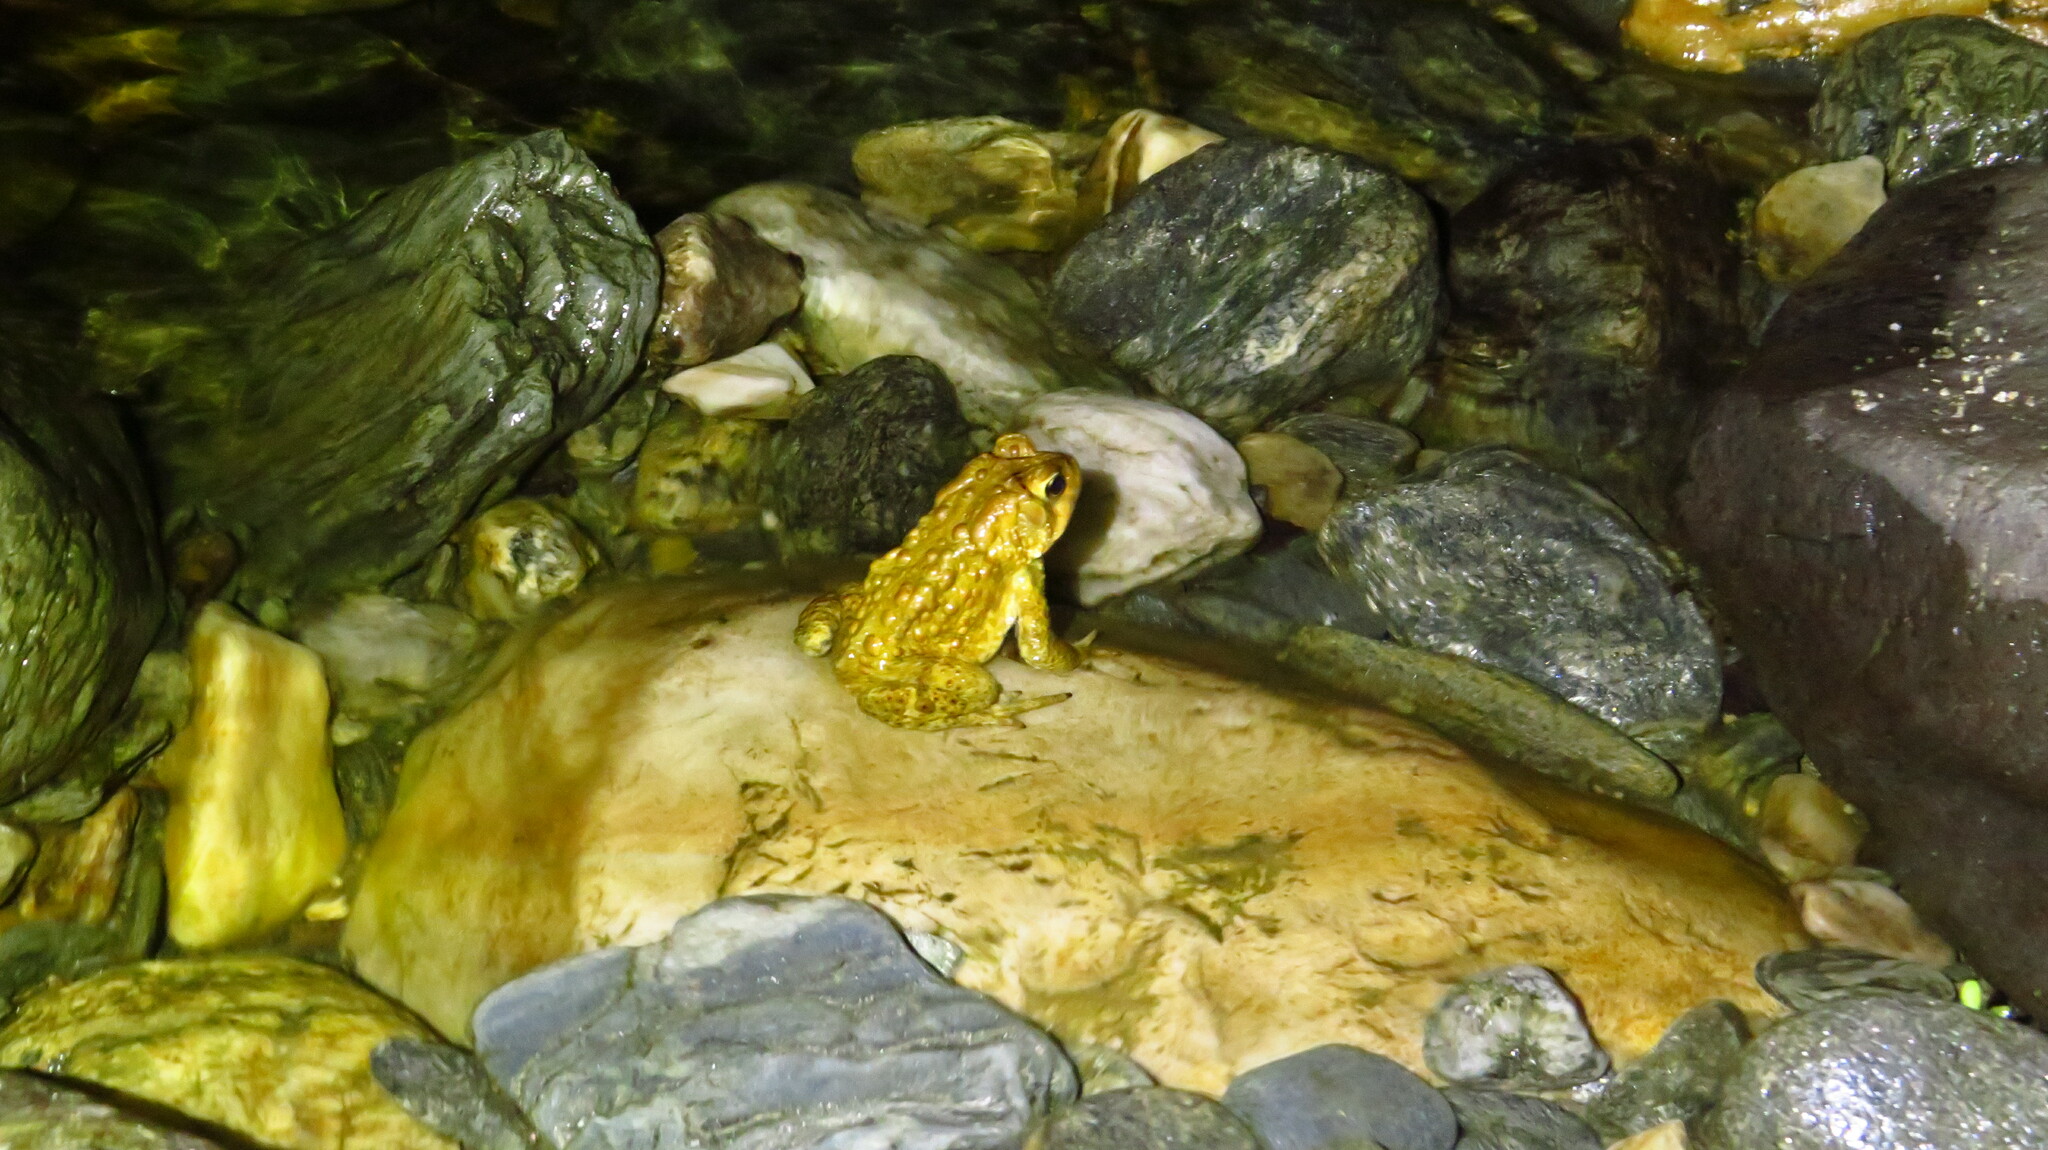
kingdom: Animalia
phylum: Chordata
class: Amphibia
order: Anura
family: Bufonidae
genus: Anaxyrus
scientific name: Anaxyrus americanus
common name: American toad
